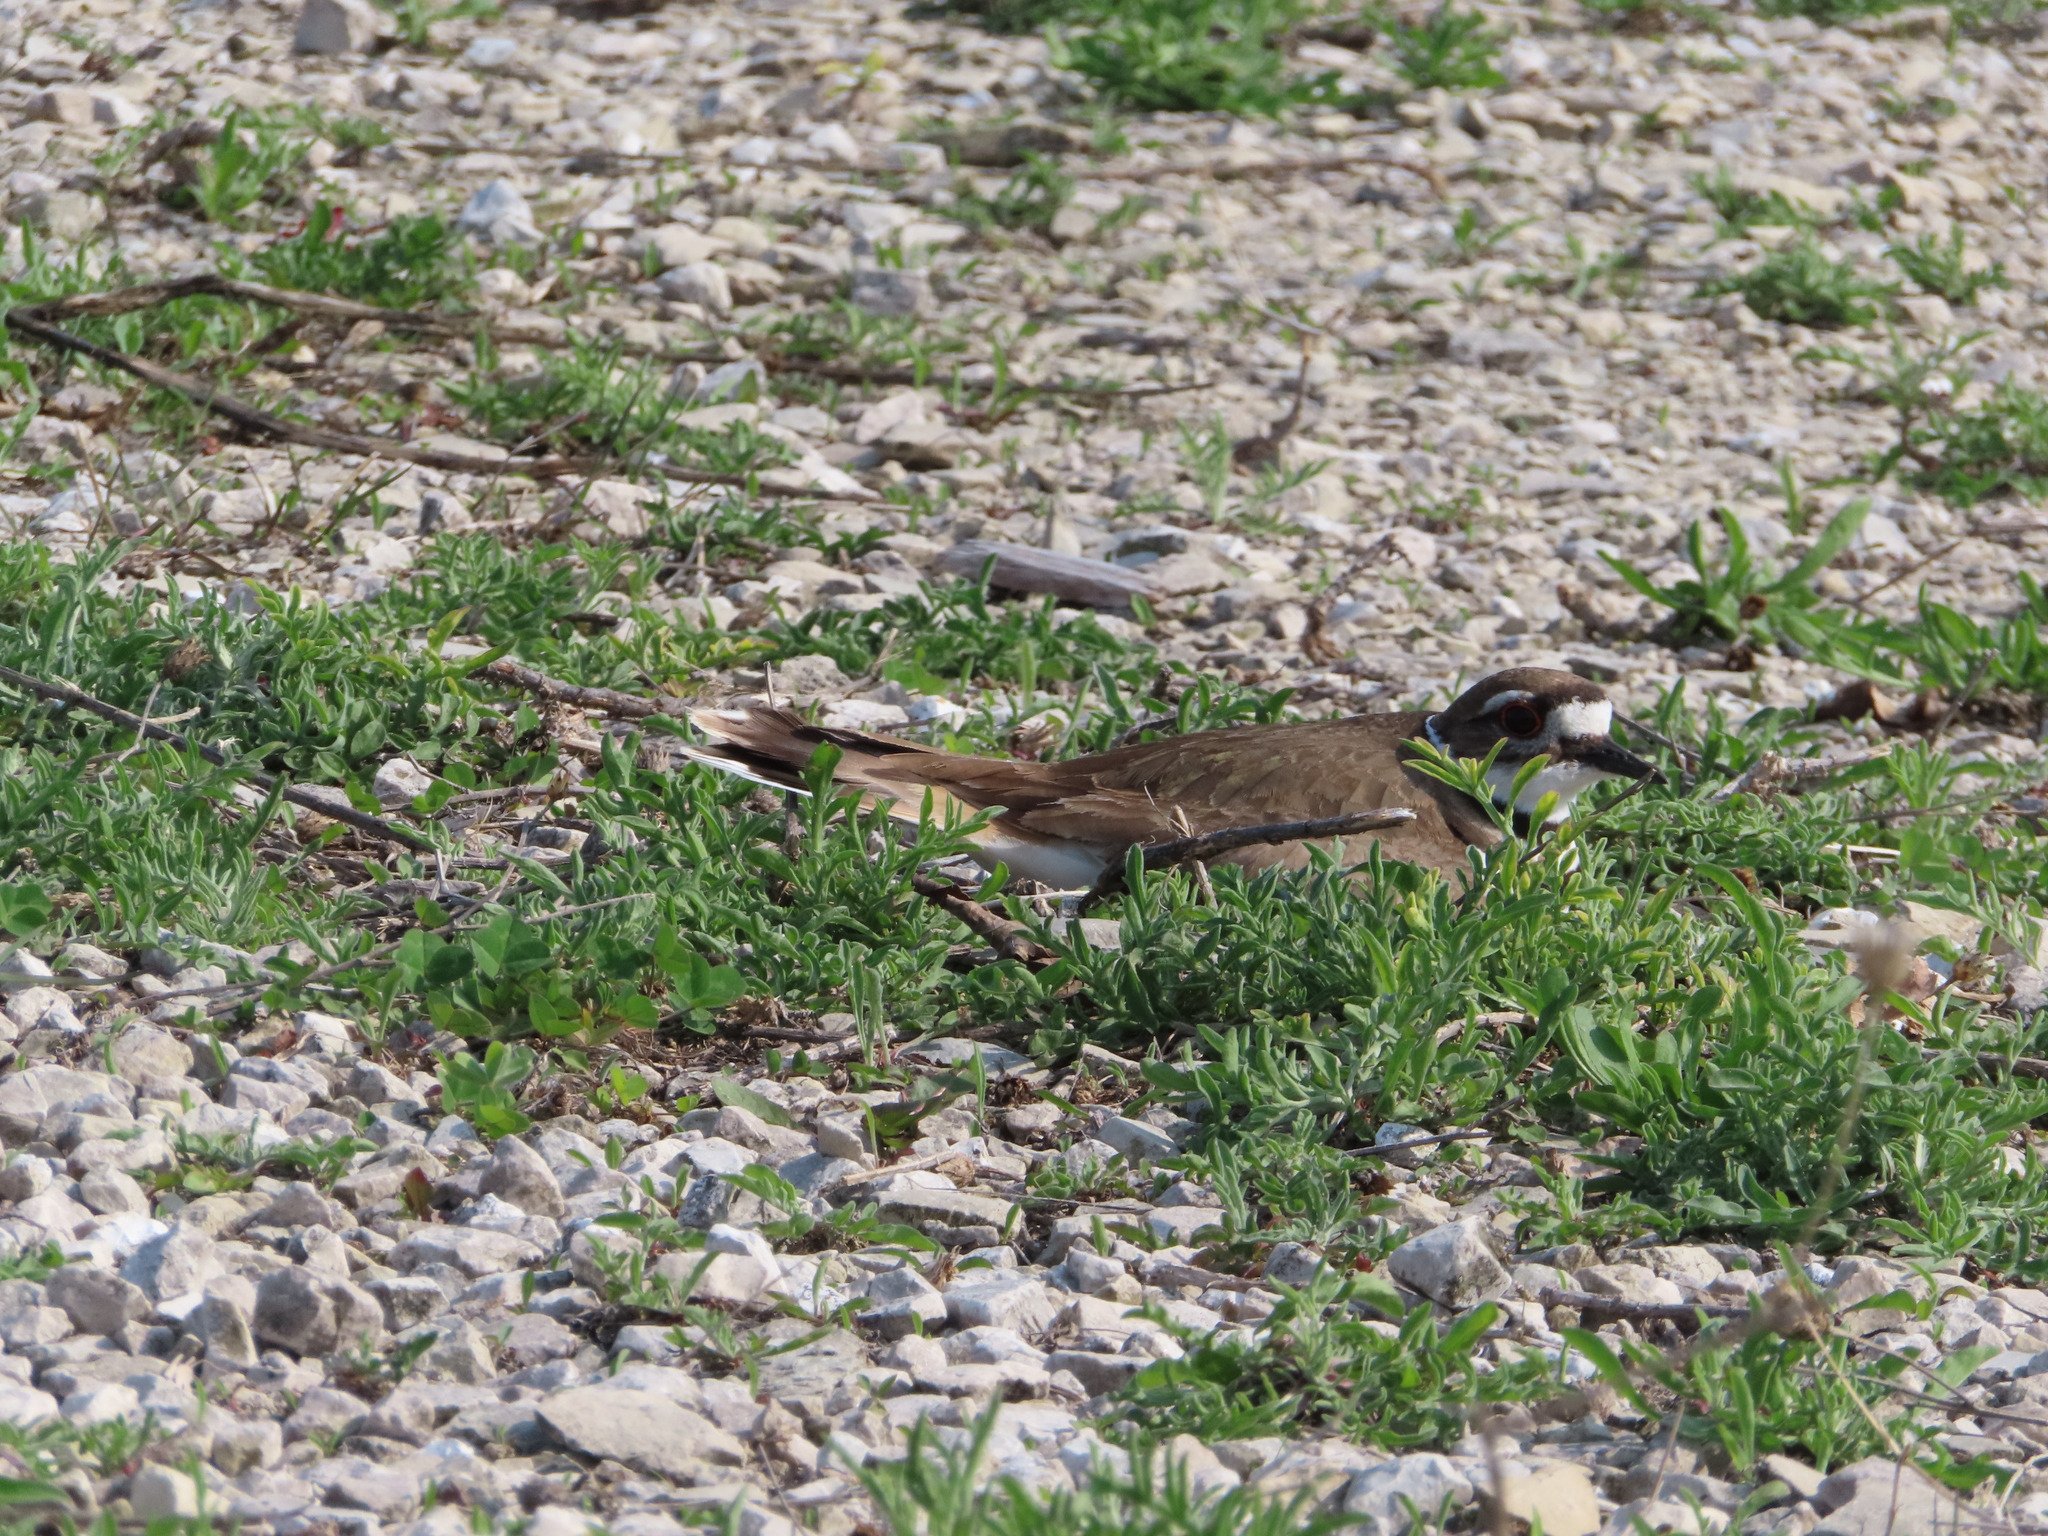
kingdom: Animalia
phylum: Chordata
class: Aves
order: Charadriiformes
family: Charadriidae
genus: Charadrius
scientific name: Charadrius vociferus
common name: Killdeer
